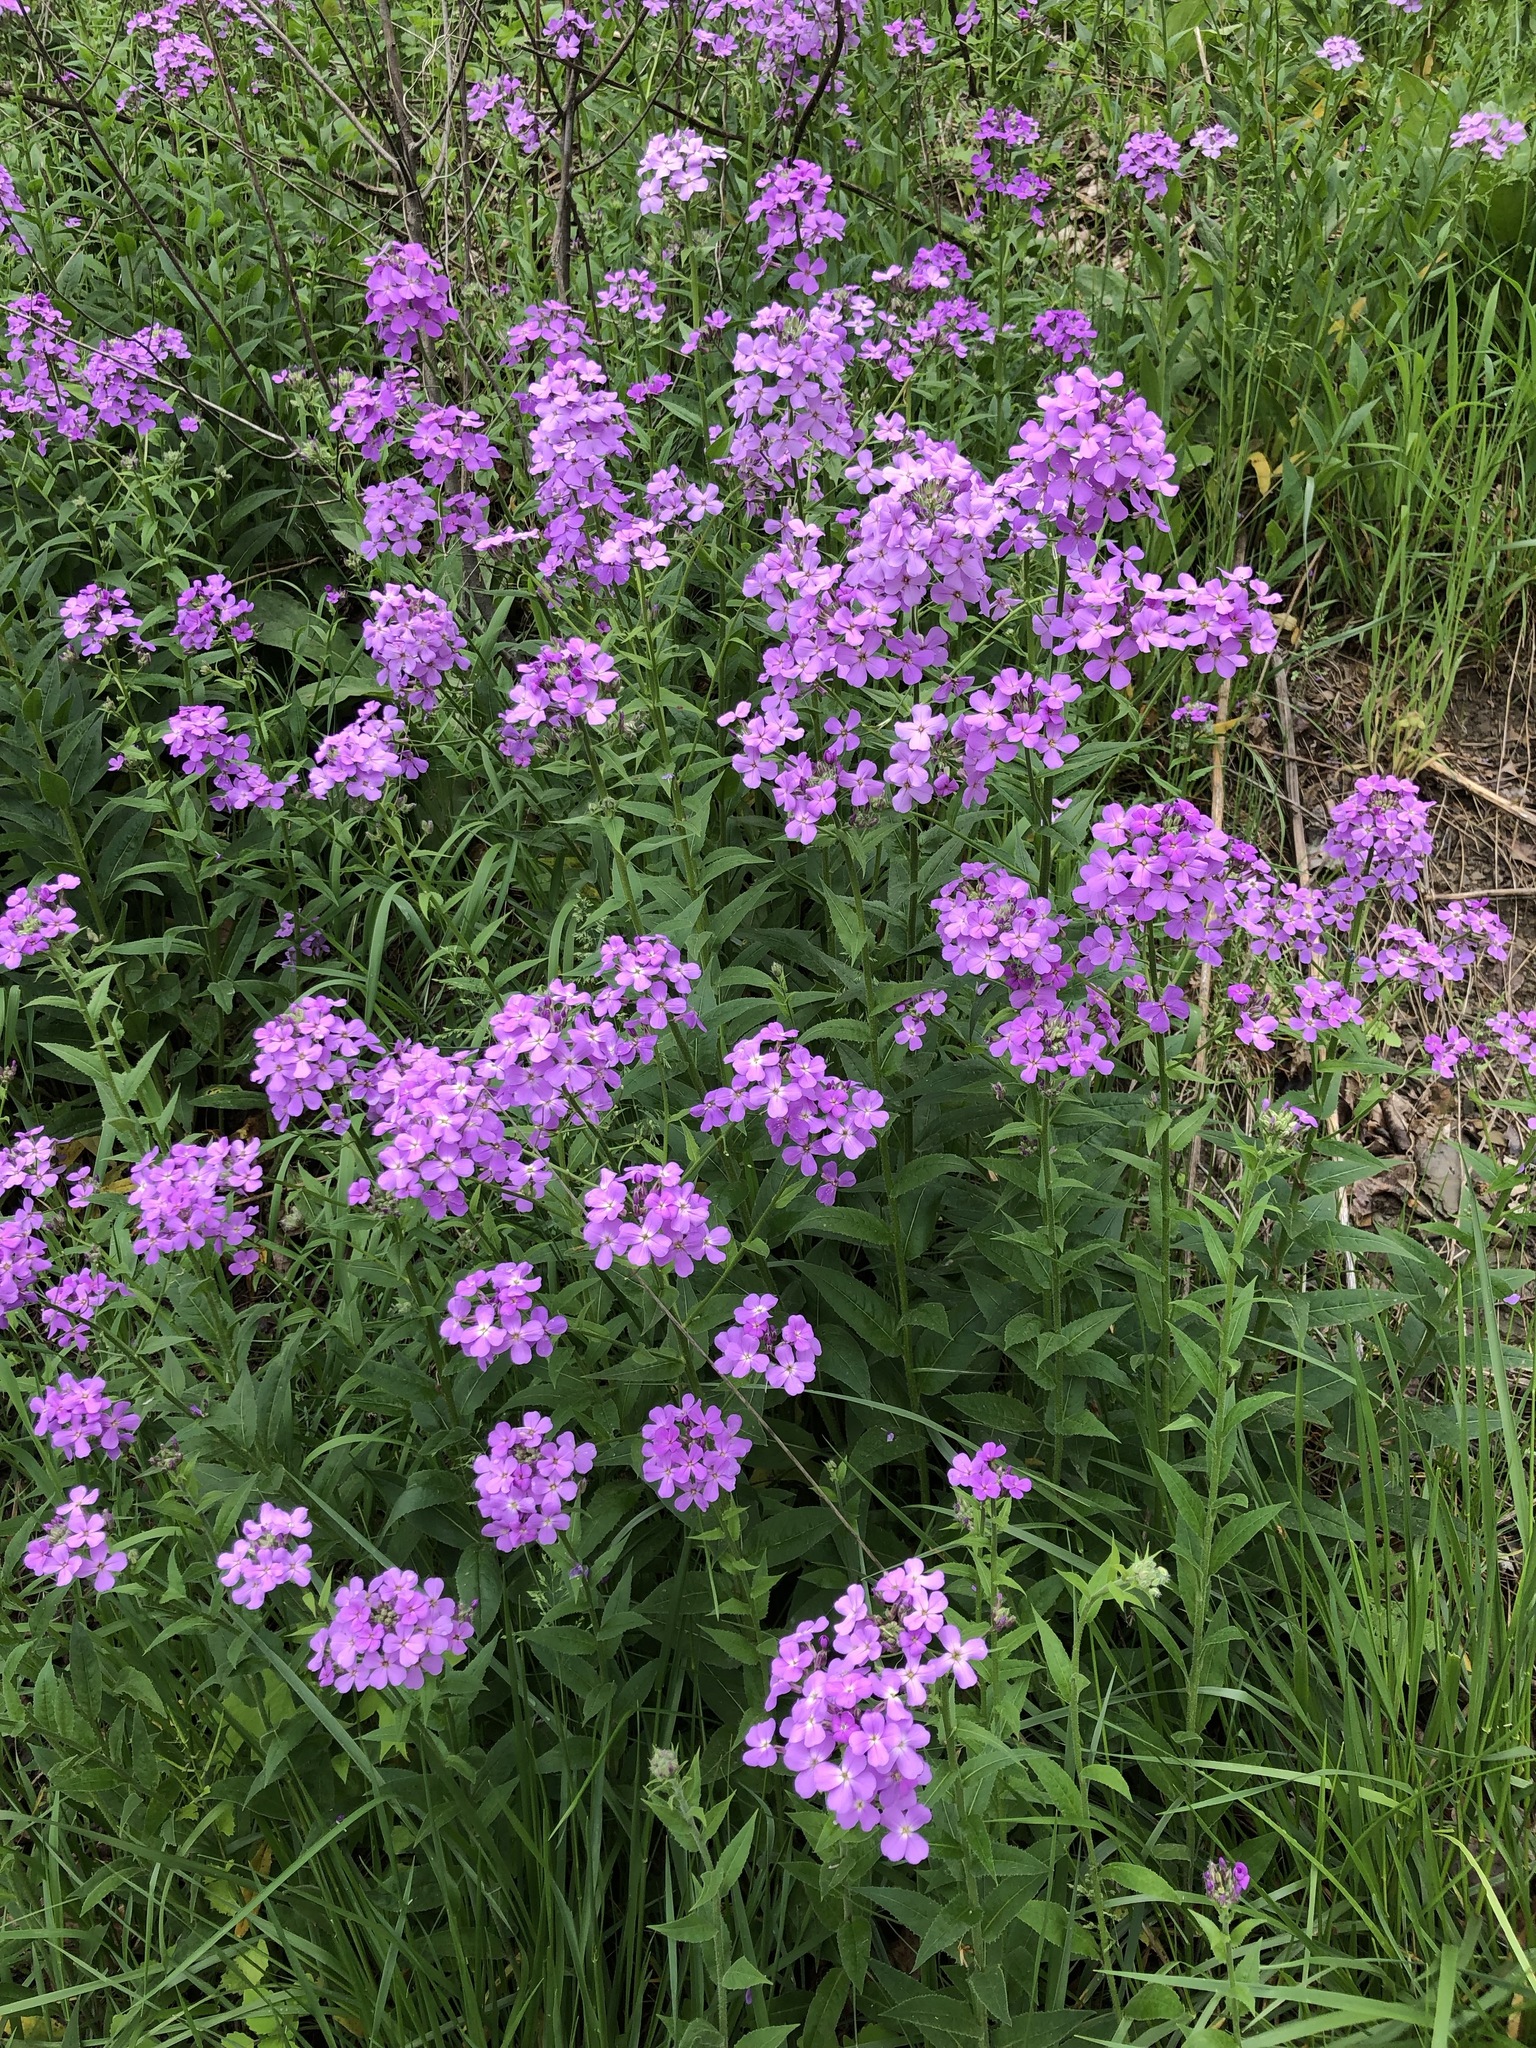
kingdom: Plantae
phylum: Tracheophyta
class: Magnoliopsida
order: Brassicales
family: Brassicaceae
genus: Hesperis
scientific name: Hesperis matronalis
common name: Dame's-violet
